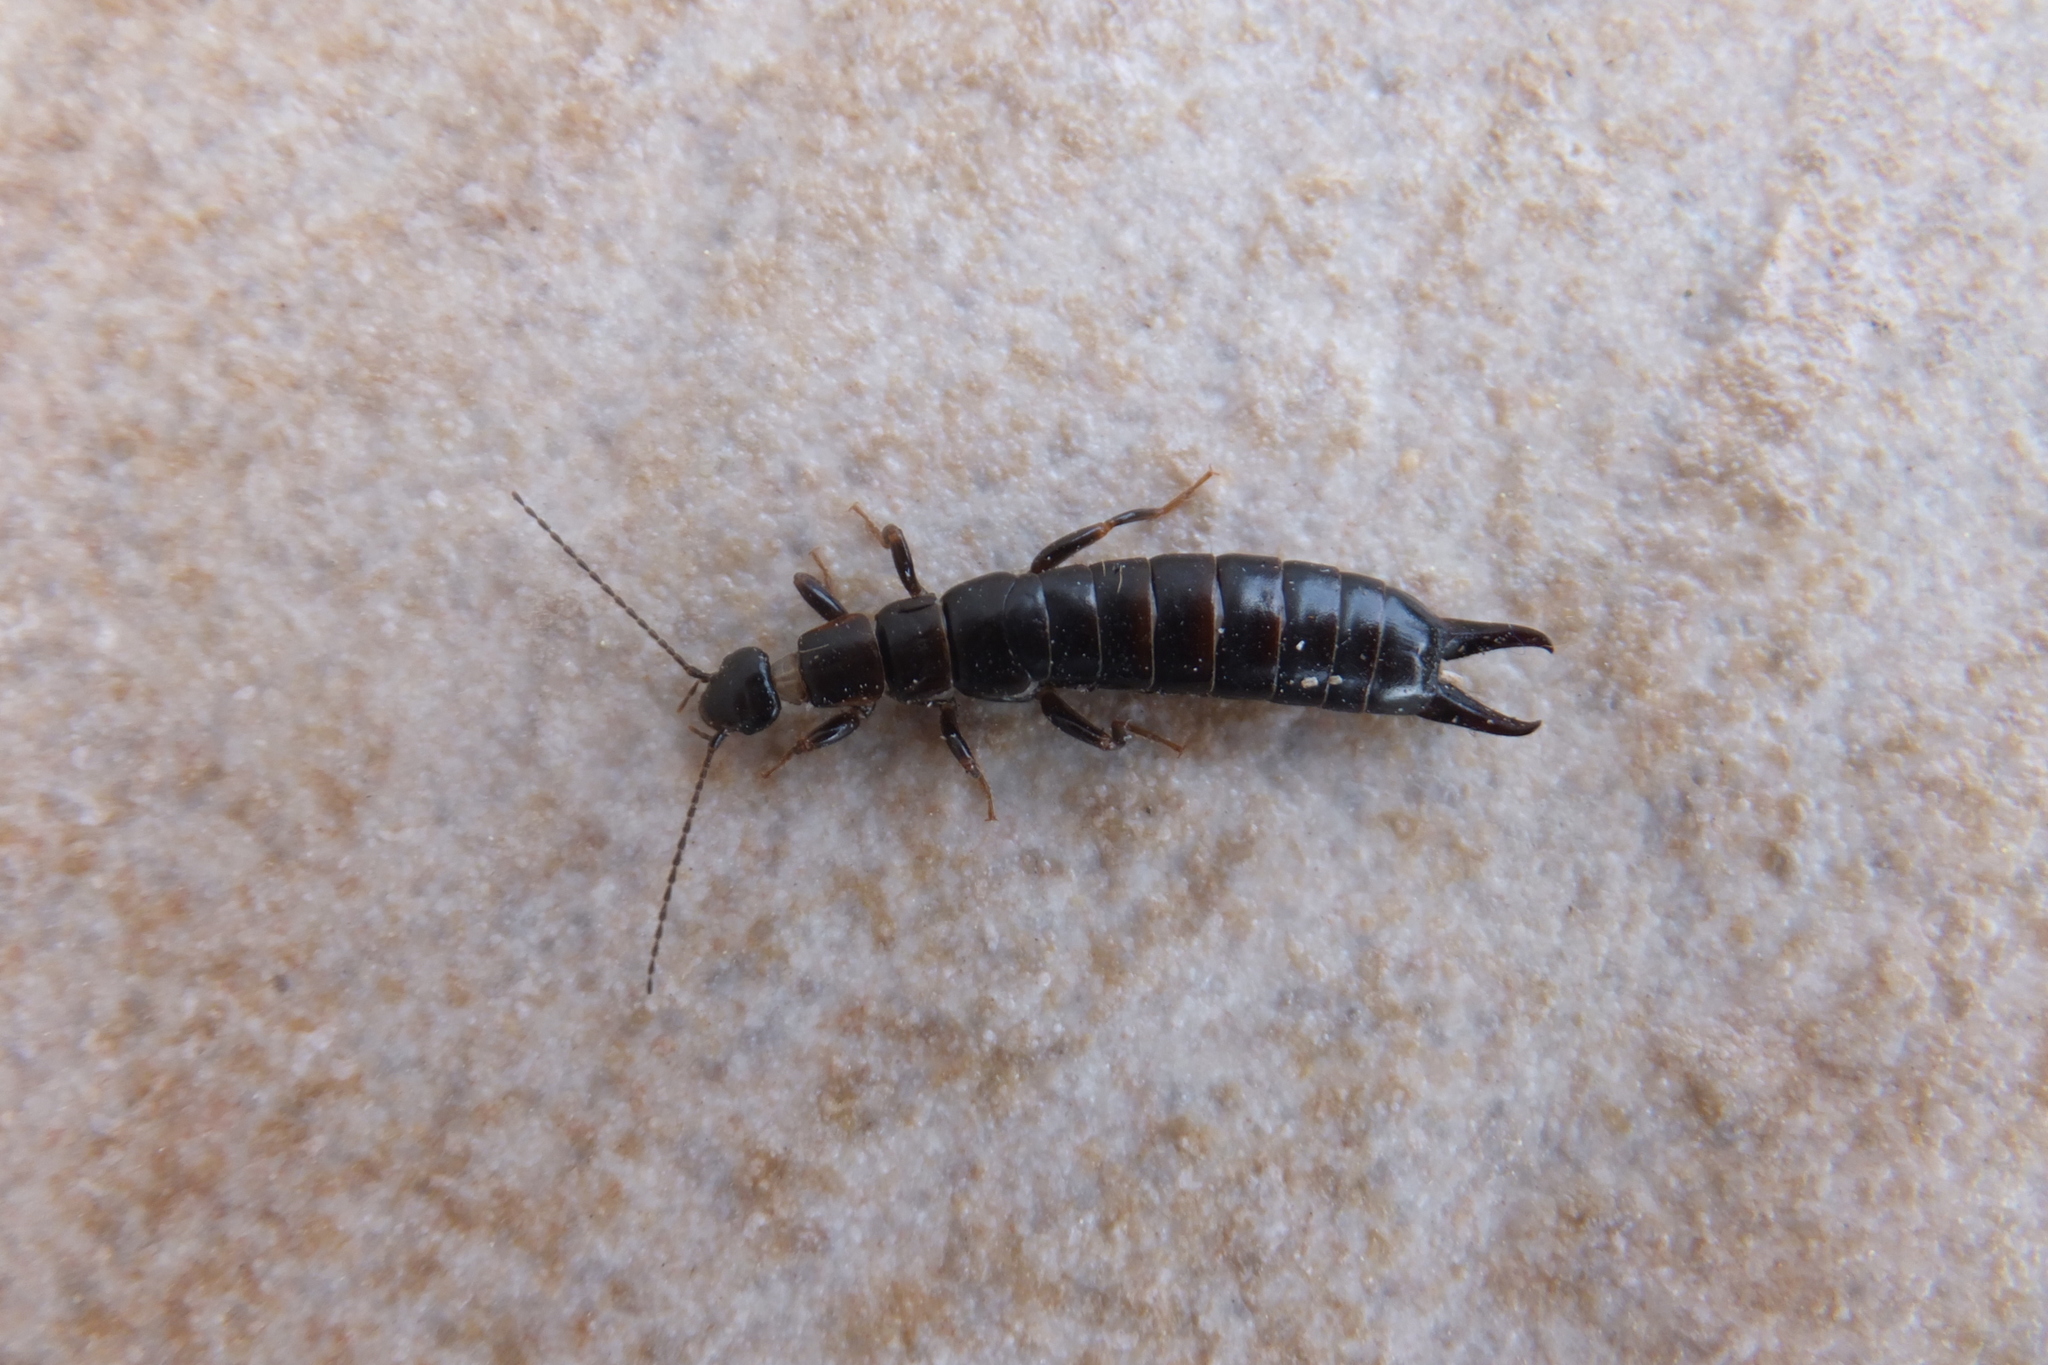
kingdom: Animalia
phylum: Arthropoda
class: Insecta
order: Dermaptera
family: Anisolabididae
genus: Euborellia
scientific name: Euborellia moesta
